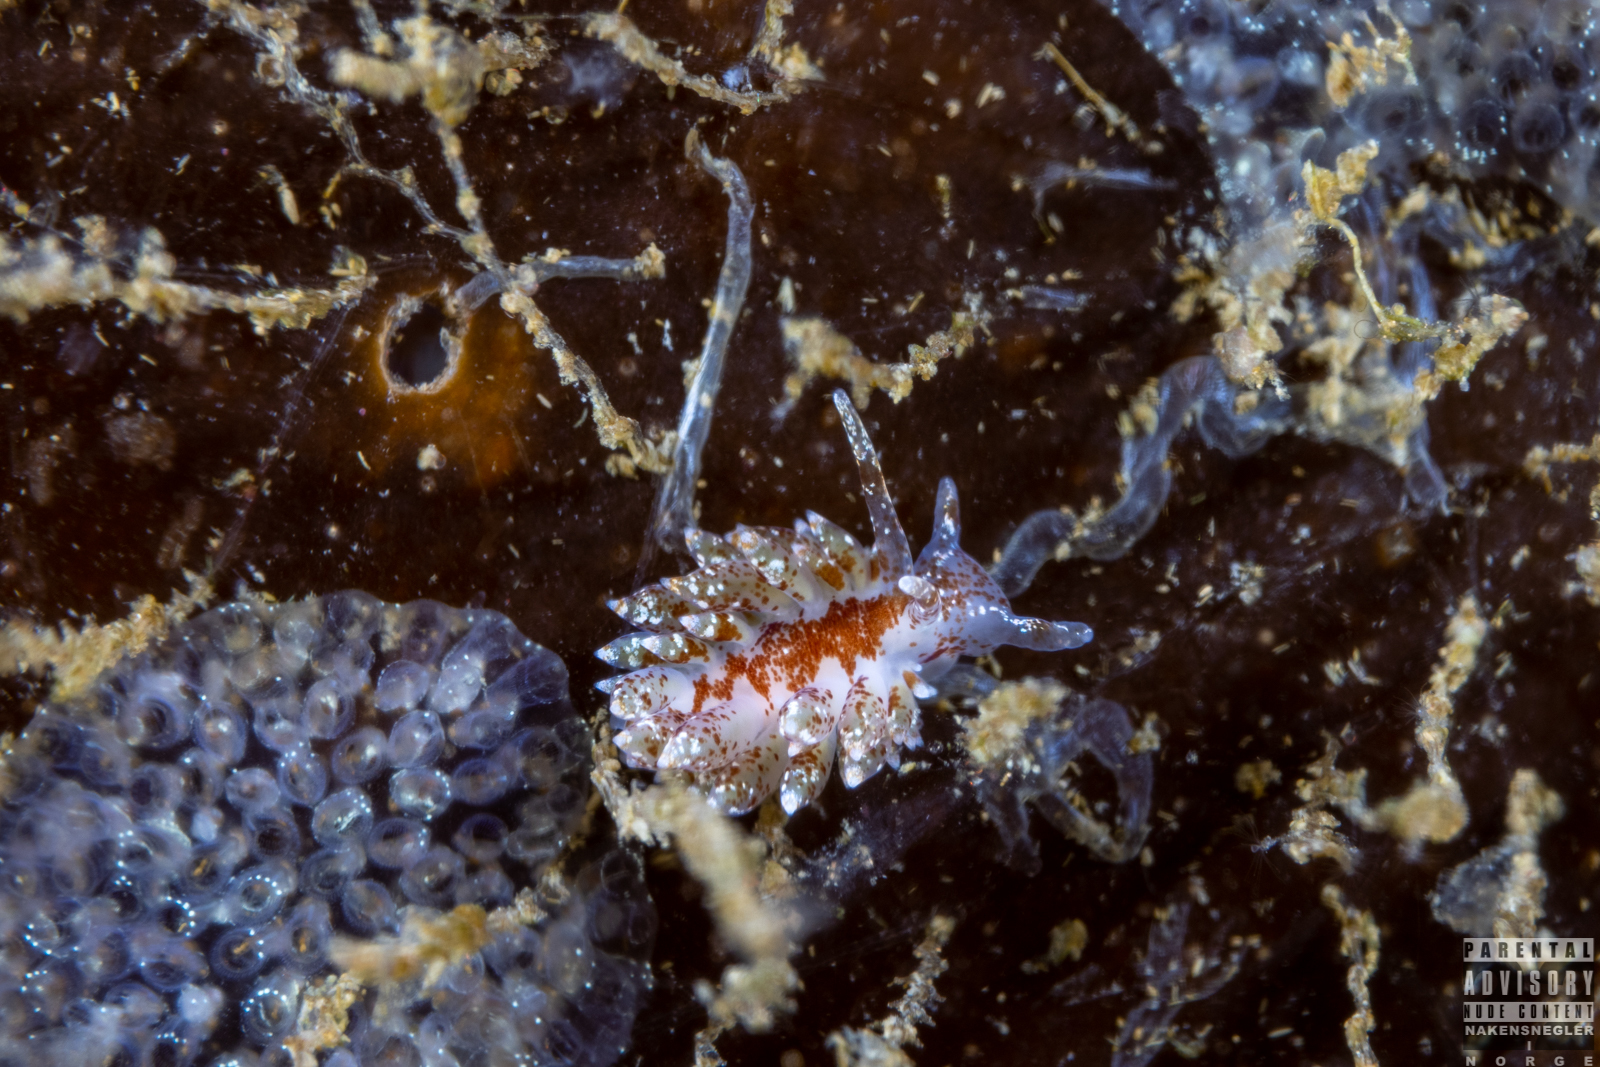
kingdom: Animalia
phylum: Mollusca
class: Gastropoda
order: Nudibranchia
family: Eubranchidae
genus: Amphorina
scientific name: Amphorina pallida
